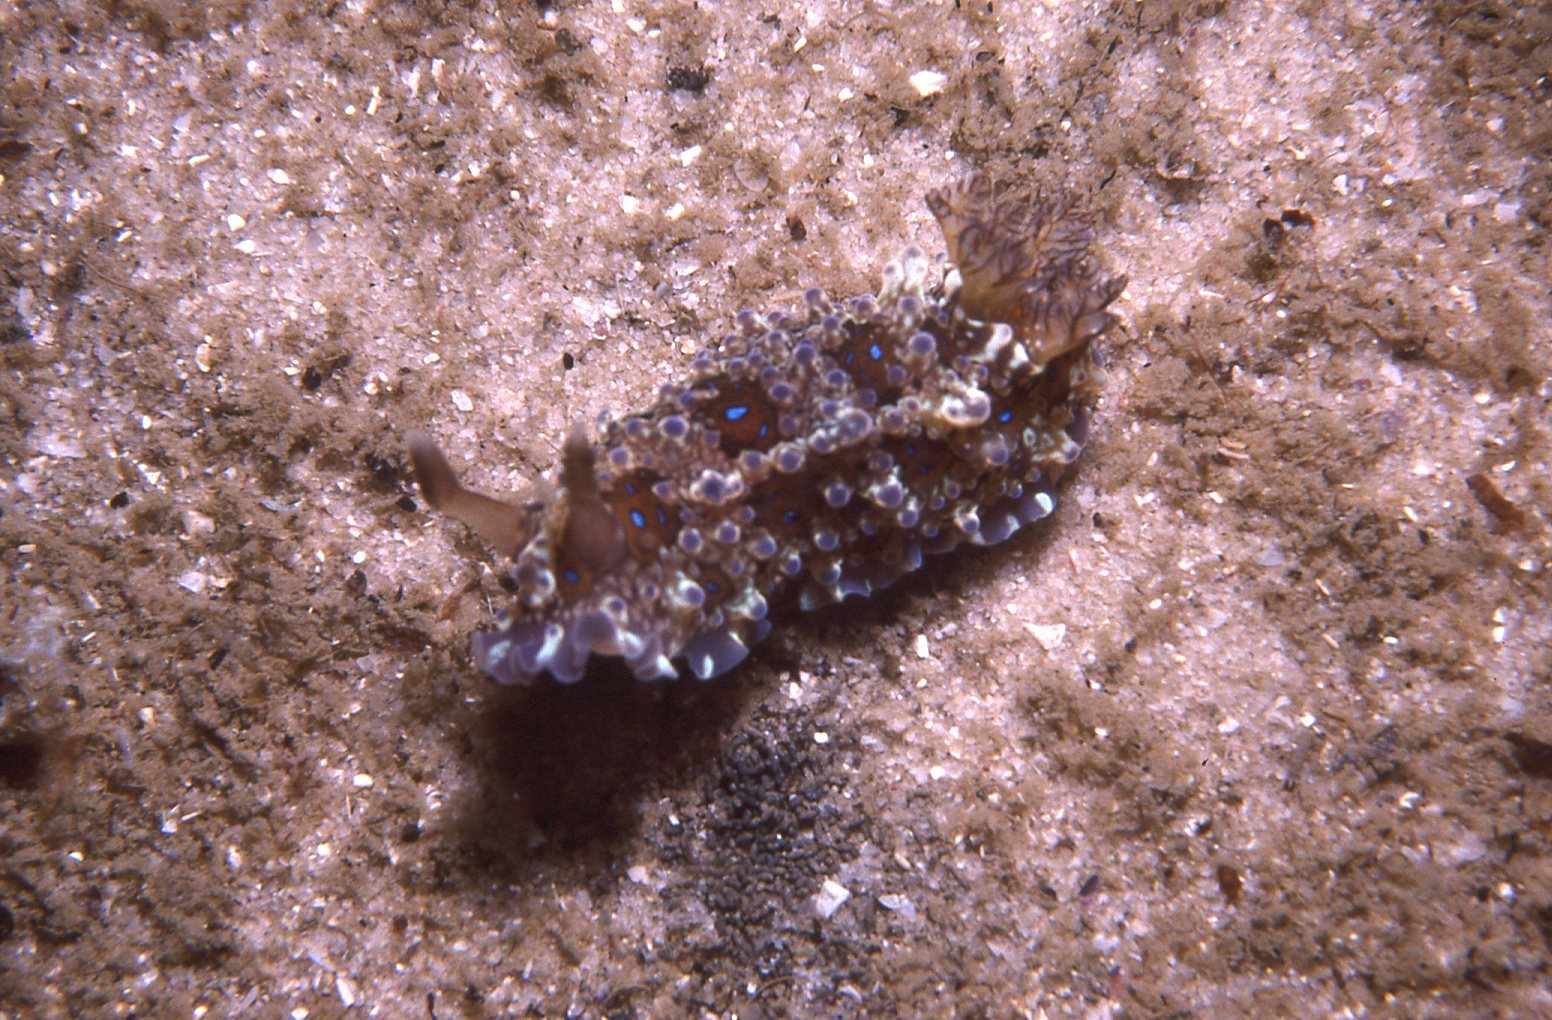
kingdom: Animalia
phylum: Mollusca
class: Gastropoda
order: Nudibranchia
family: Dendrodorididae
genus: Dendrodoris
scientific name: Dendrodoris krusensternii
